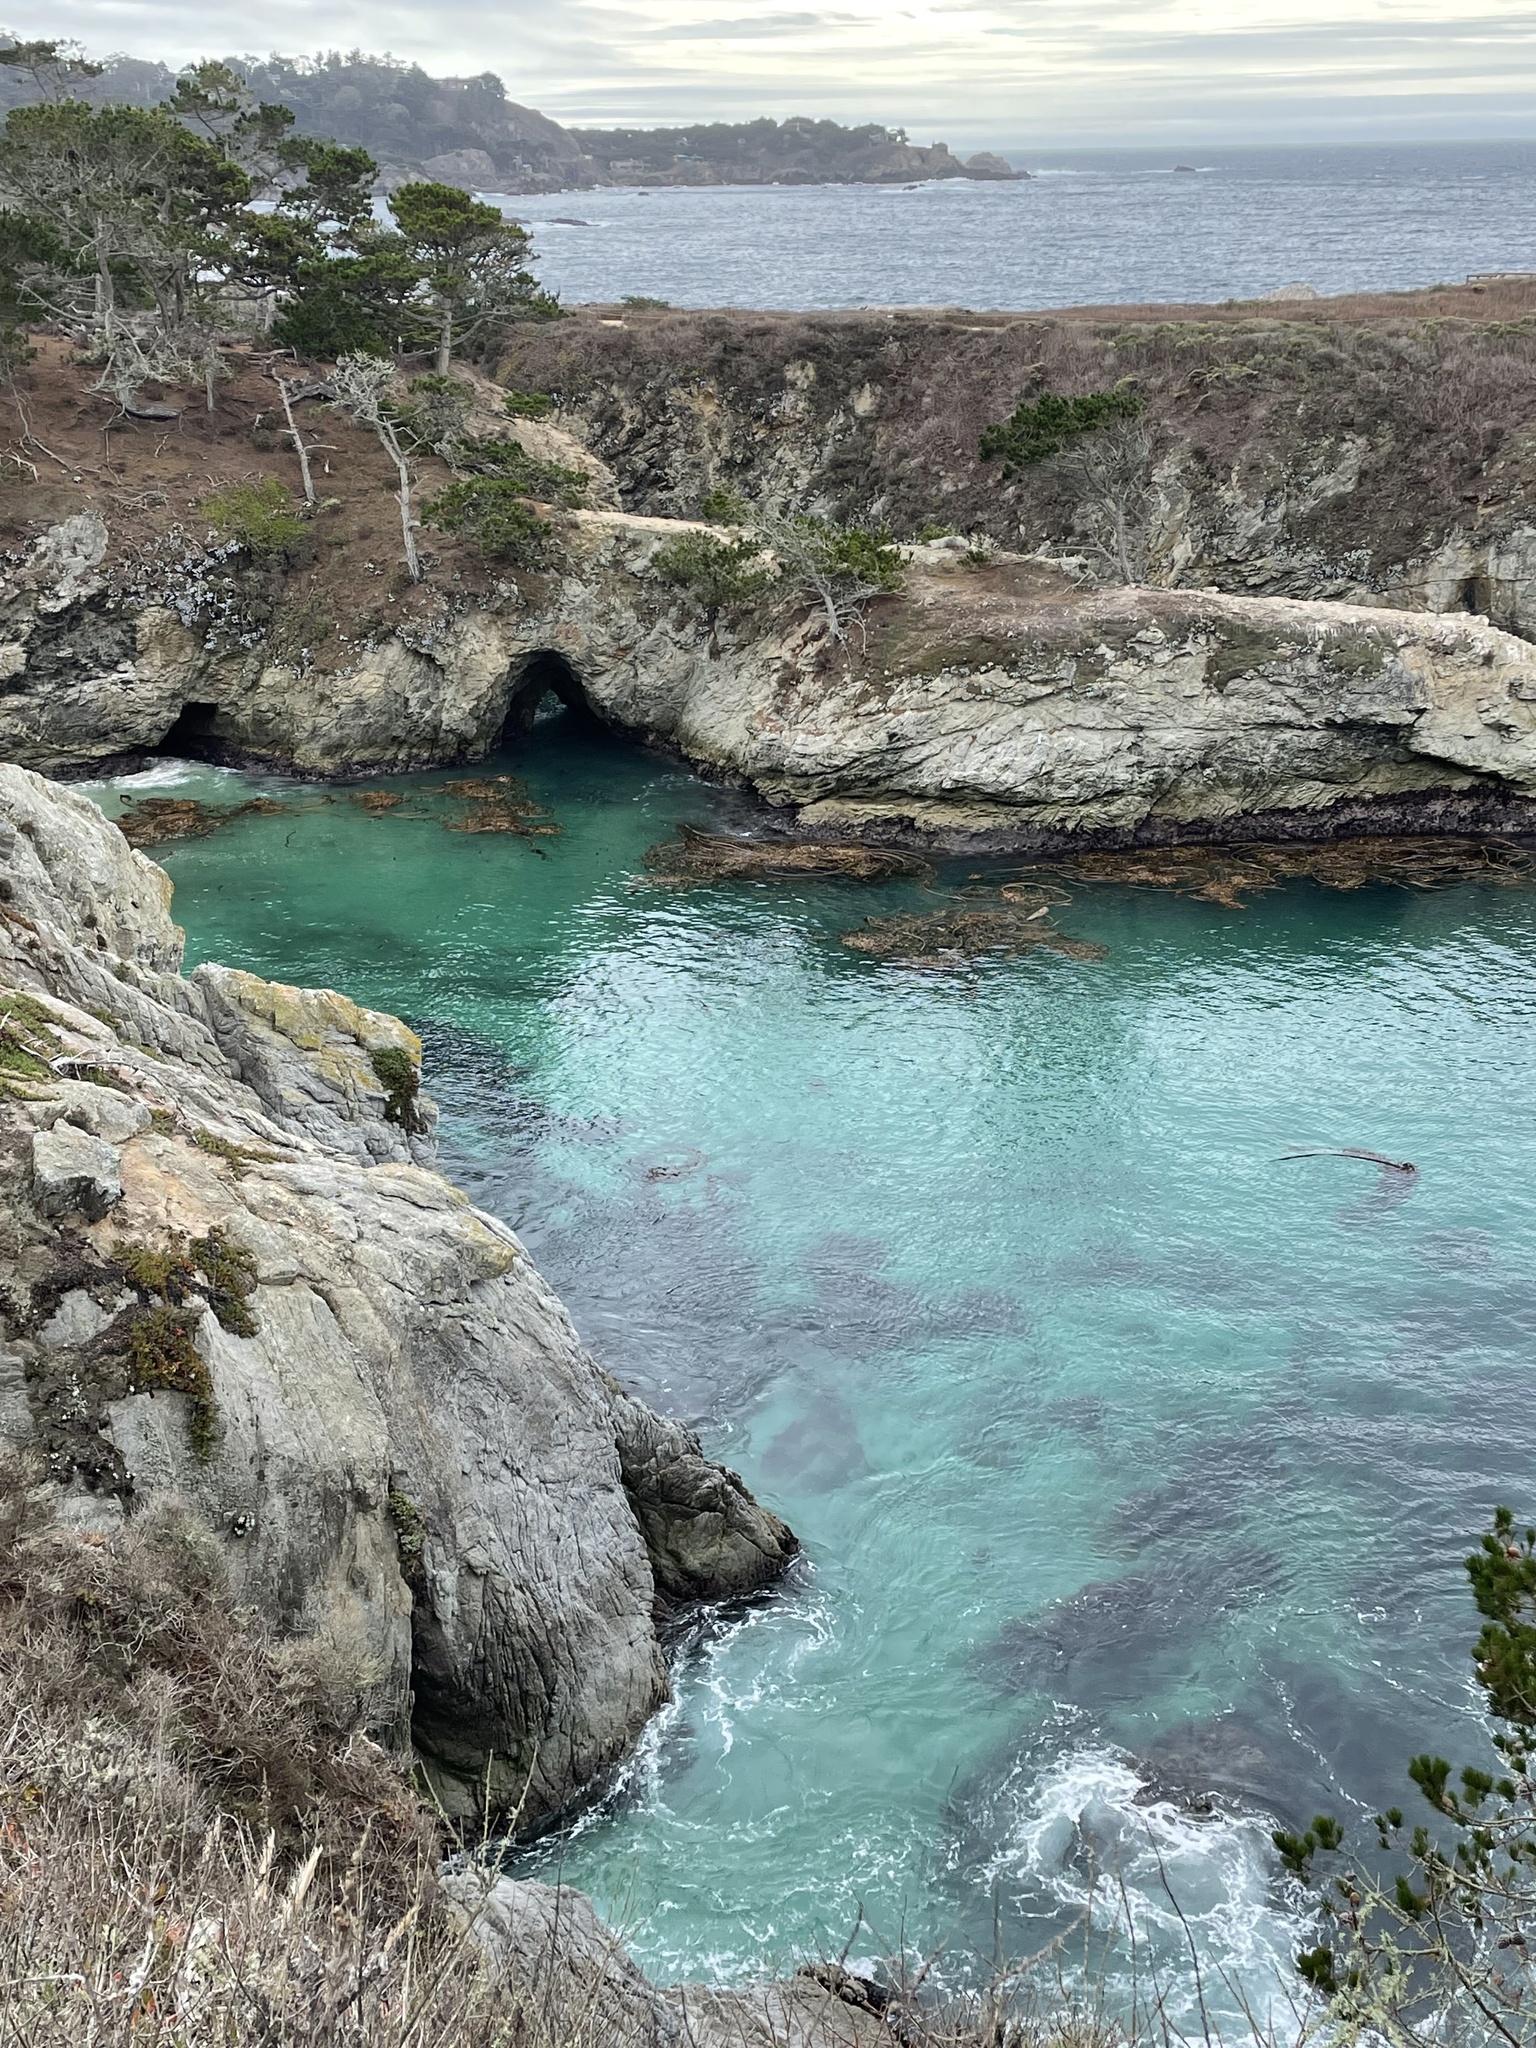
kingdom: Animalia
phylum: Chordata
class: Mammalia
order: Carnivora
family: Phocidae
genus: Phoca
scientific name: Phoca vitulina
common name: Harbor seal
